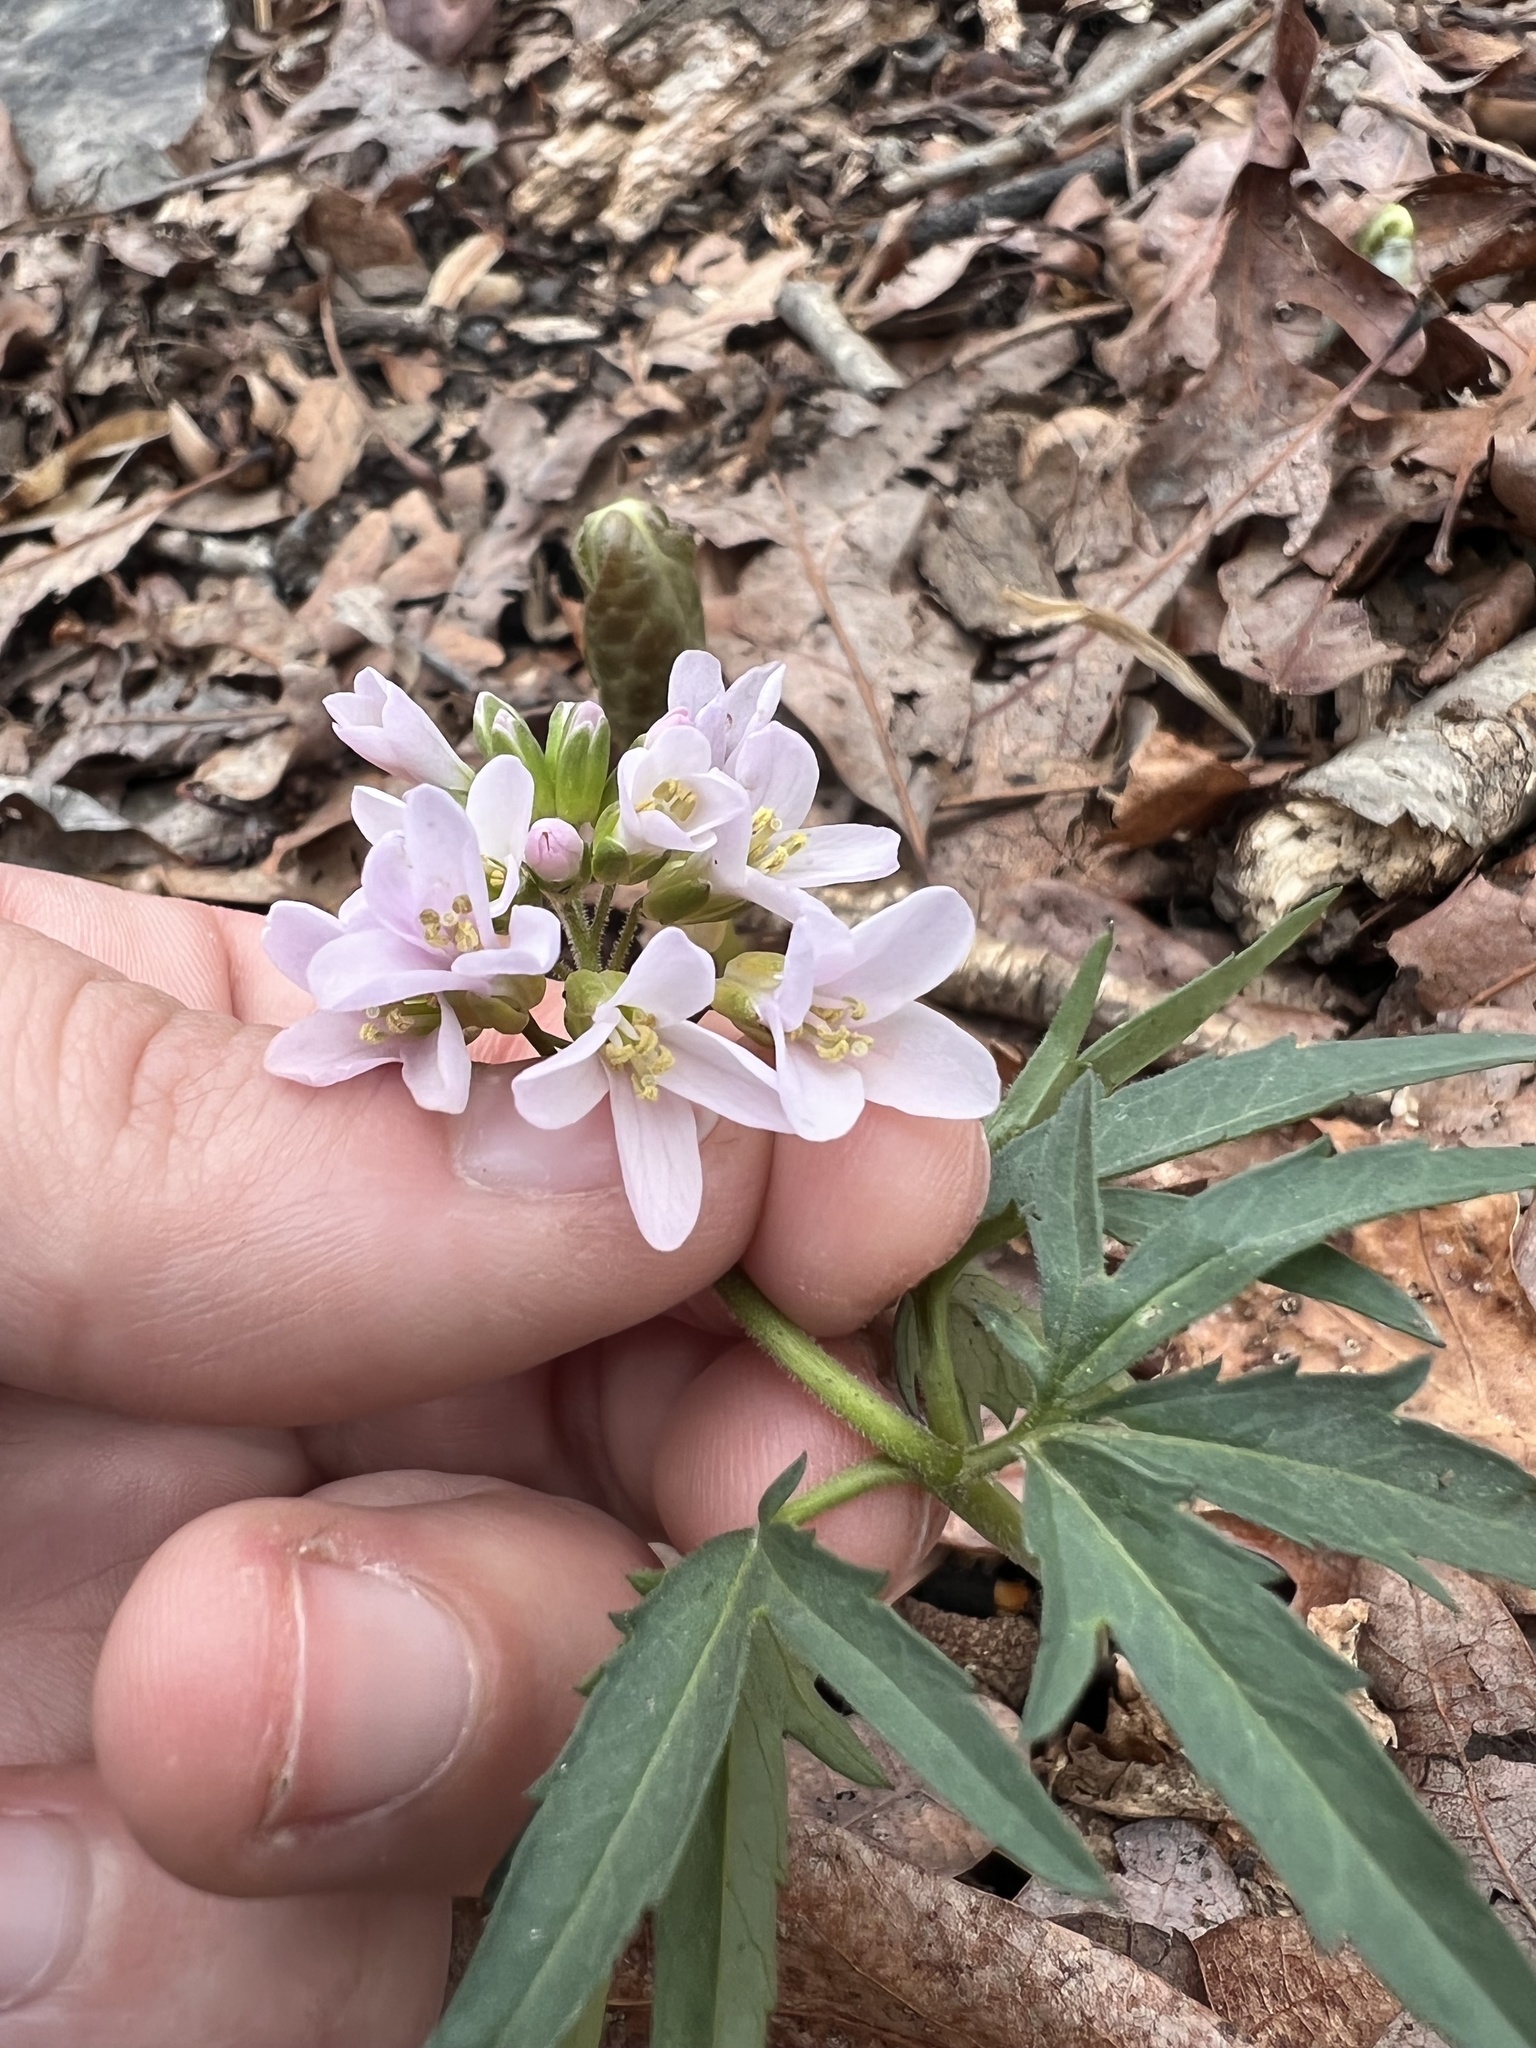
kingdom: Plantae
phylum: Tracheophyta
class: Magnoliopsida
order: Brassicales
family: Brassicaceae
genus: Cardamine
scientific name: Cardamine concatenata
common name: Cut-leaf toothcup
